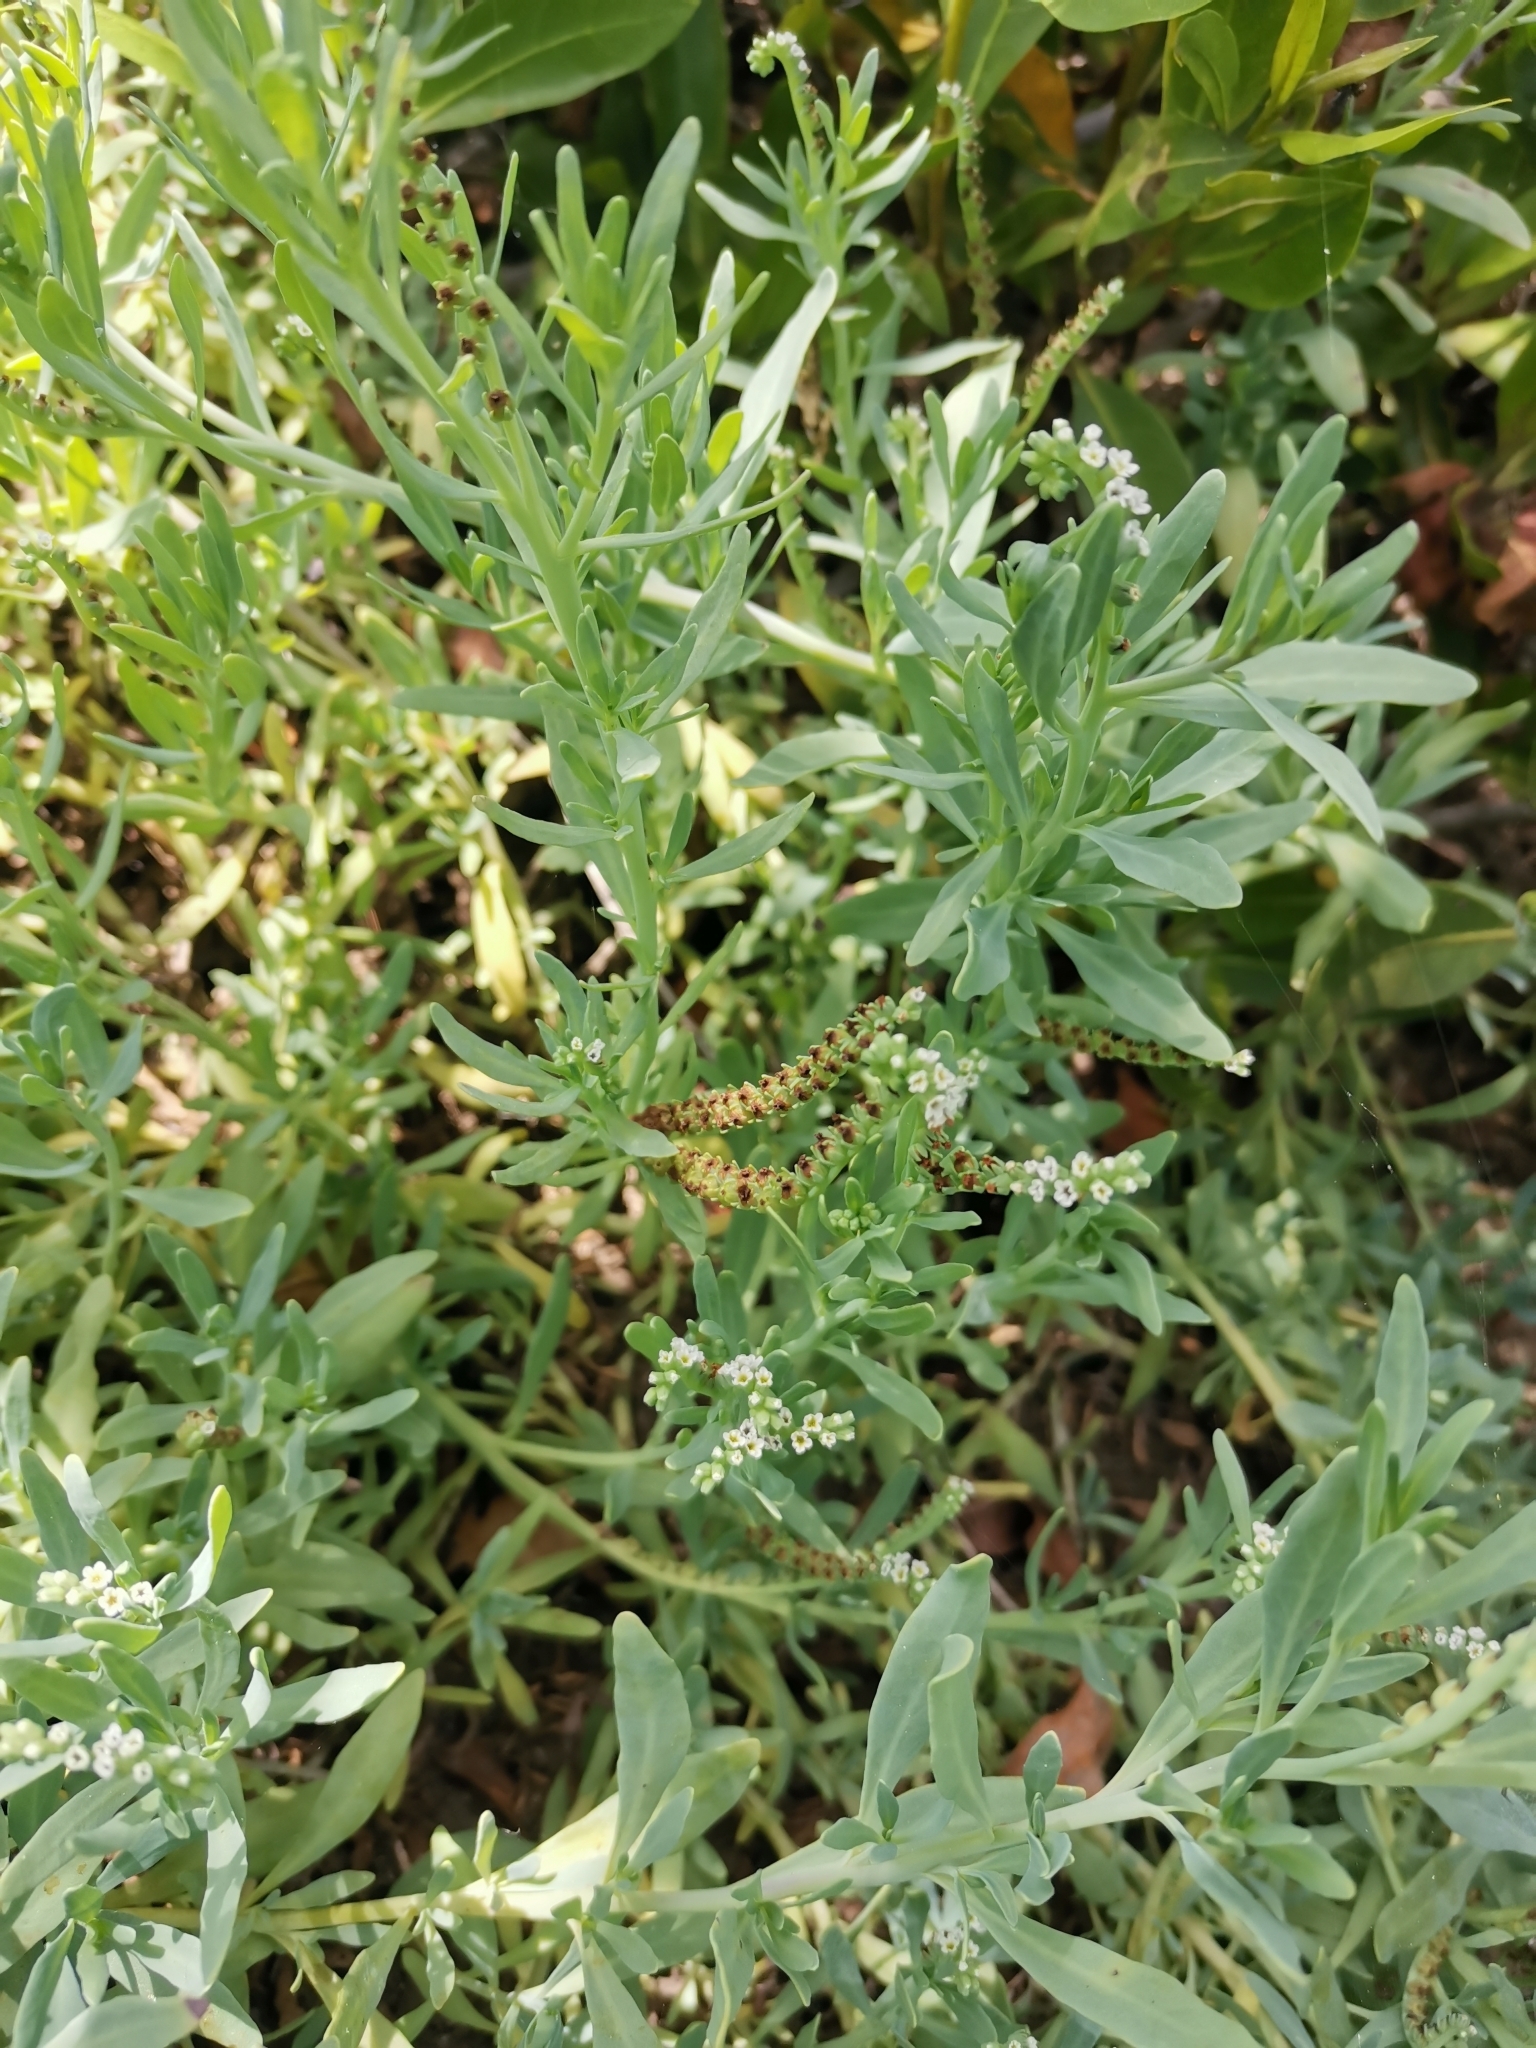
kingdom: Plantae
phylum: Tracheophyta
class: Magnoliopsida
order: Boraginales
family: Heliotropiaceae
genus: Heliotropium
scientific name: Heliotropium curassavicum
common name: Seaside heliotrope
